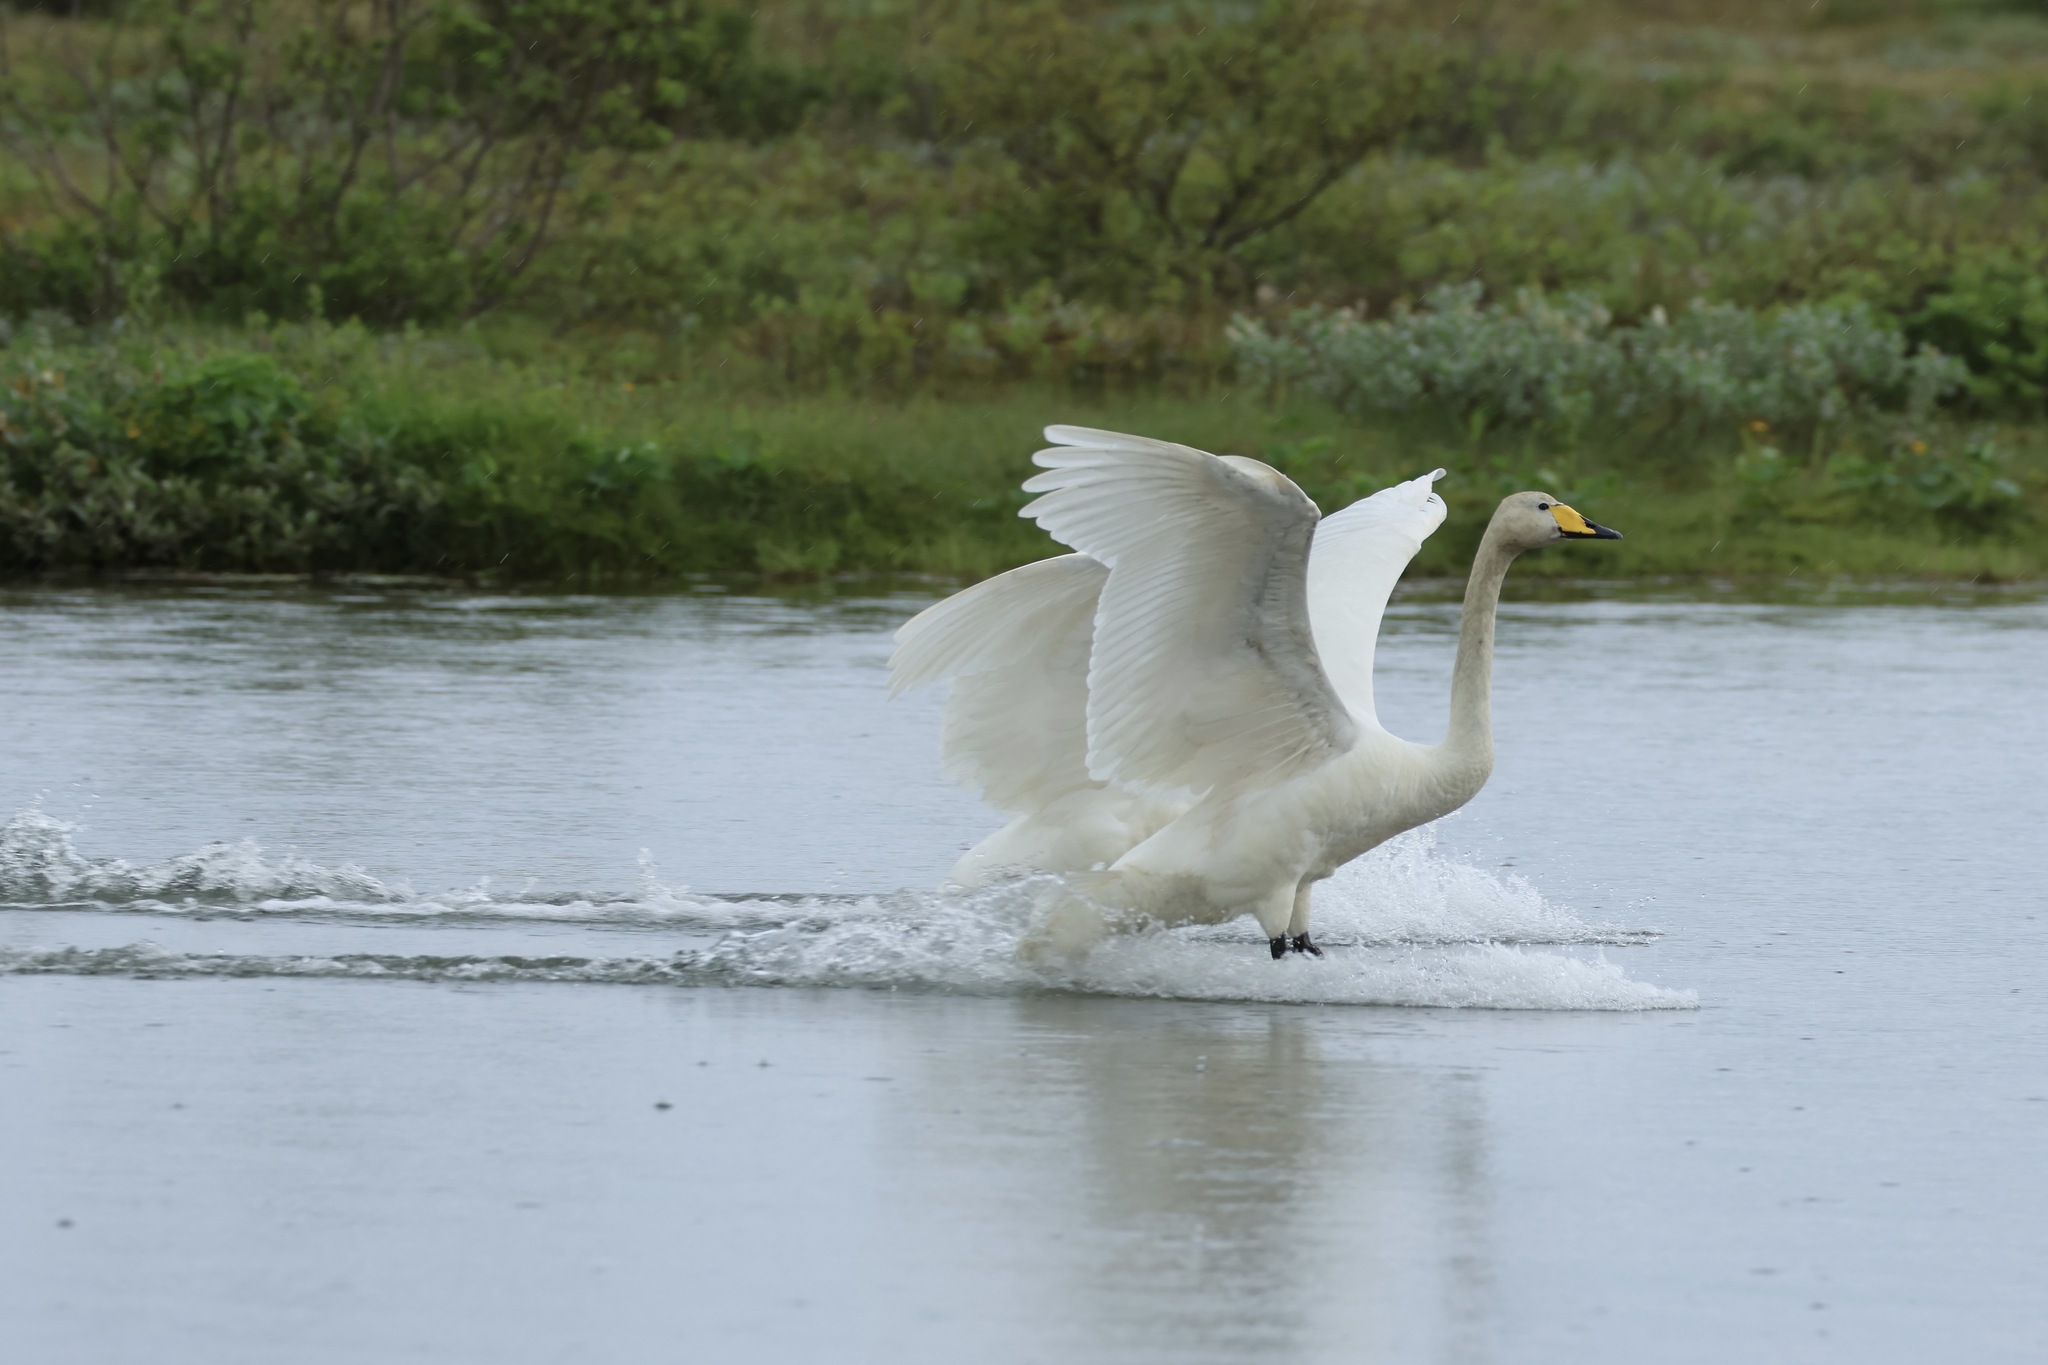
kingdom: Animalia
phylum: Chordata
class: Aves
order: Anseriformes
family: Anatidae
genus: Cygnus
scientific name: Cygnus cygnus
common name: Whooper swan
